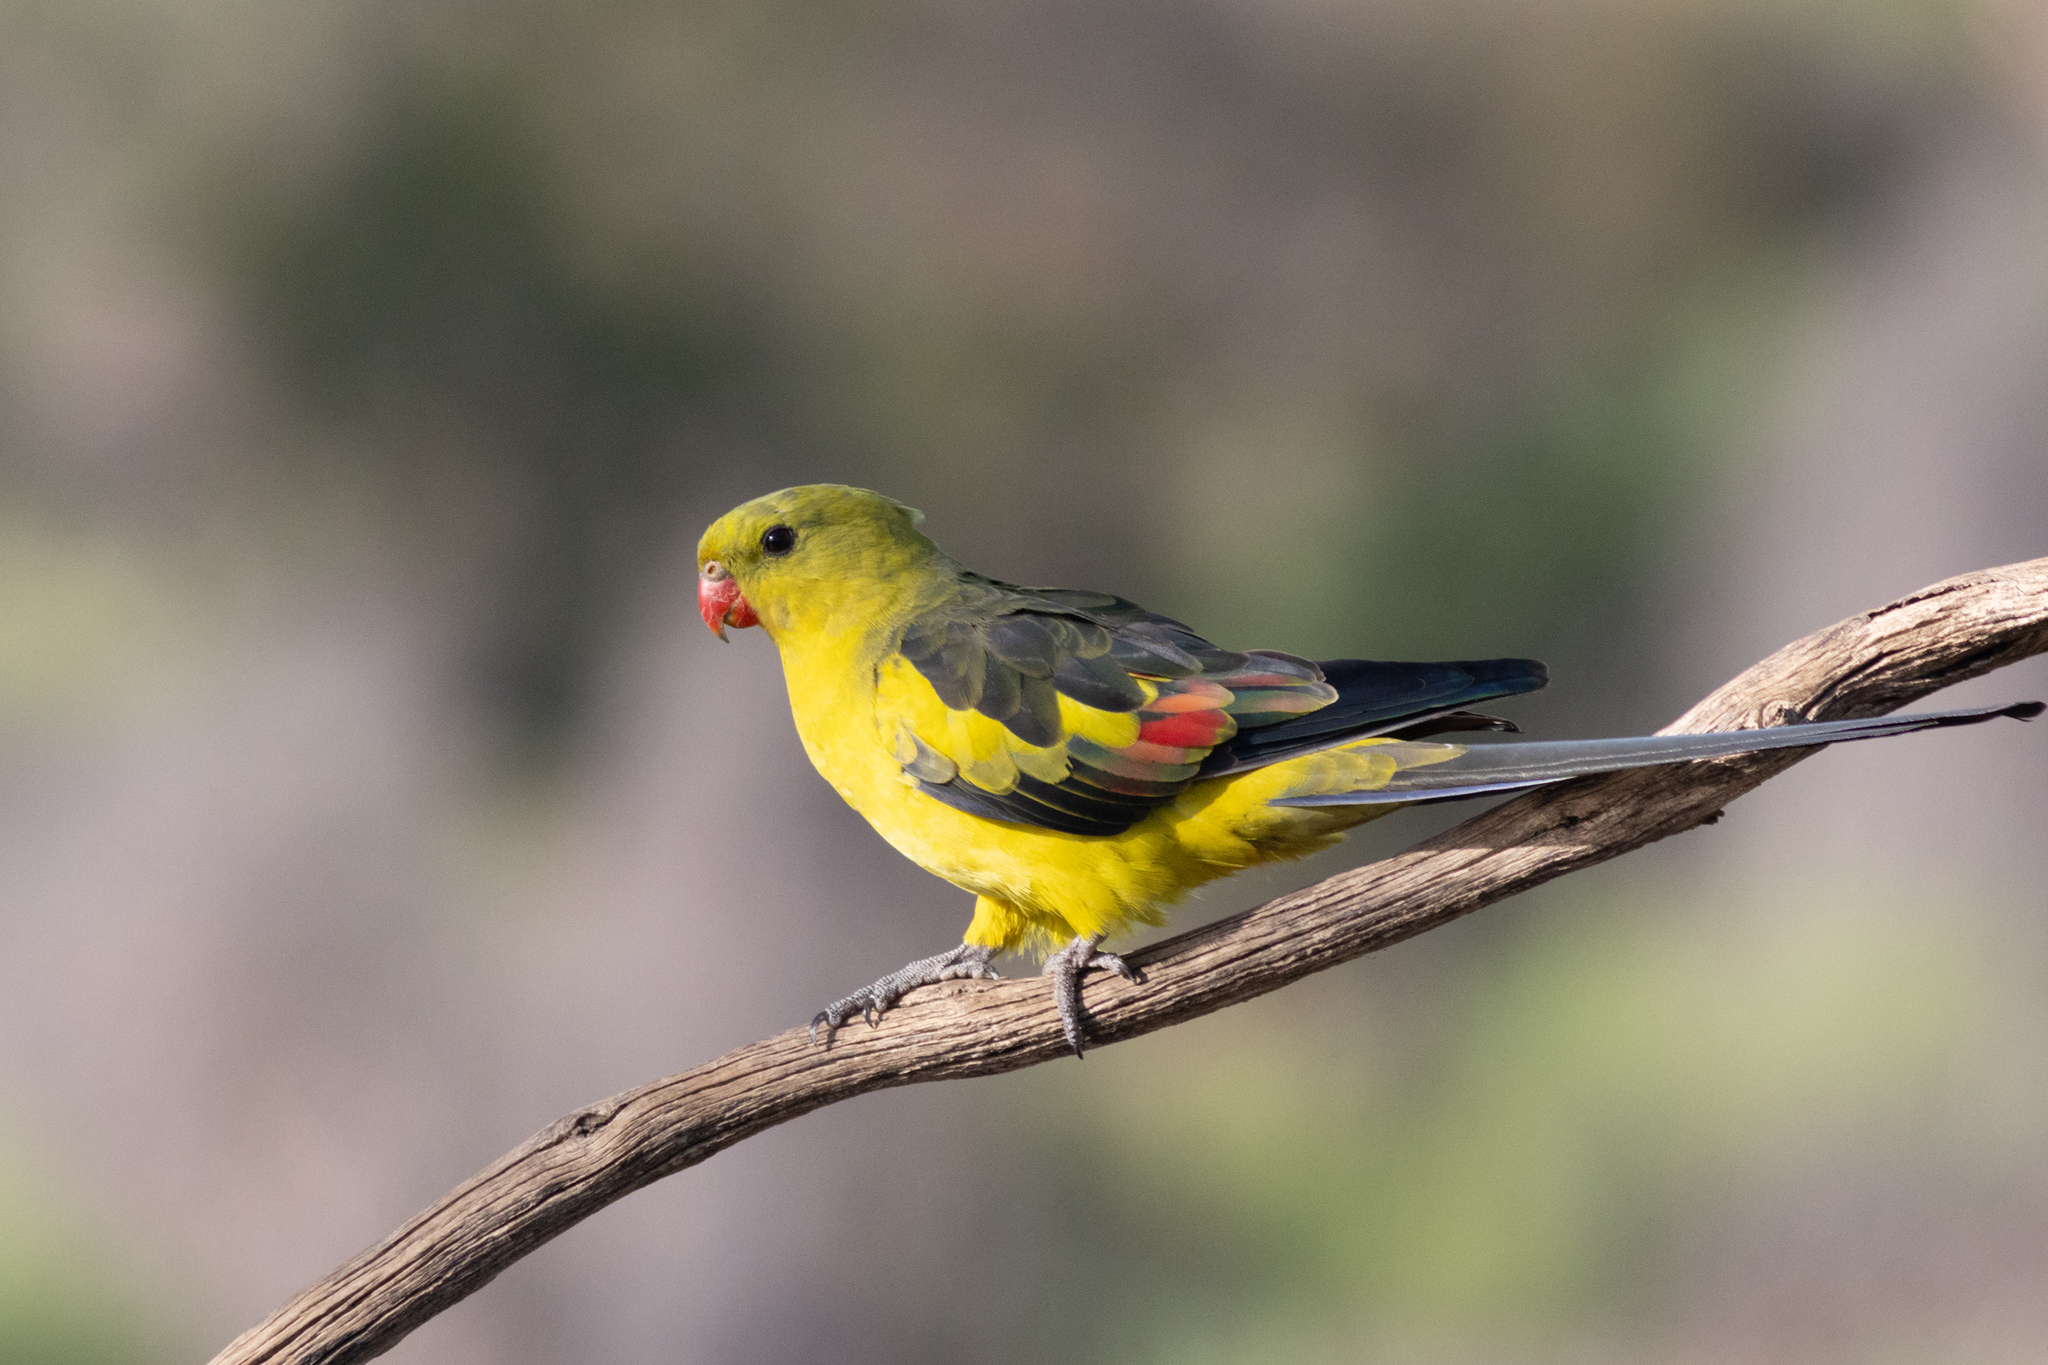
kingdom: Animalia
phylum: Chordata
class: Aves
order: Psittaciformes
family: Psittacidae
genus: Polytelis
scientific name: Polytelis anthopeplus
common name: Regent parrot
